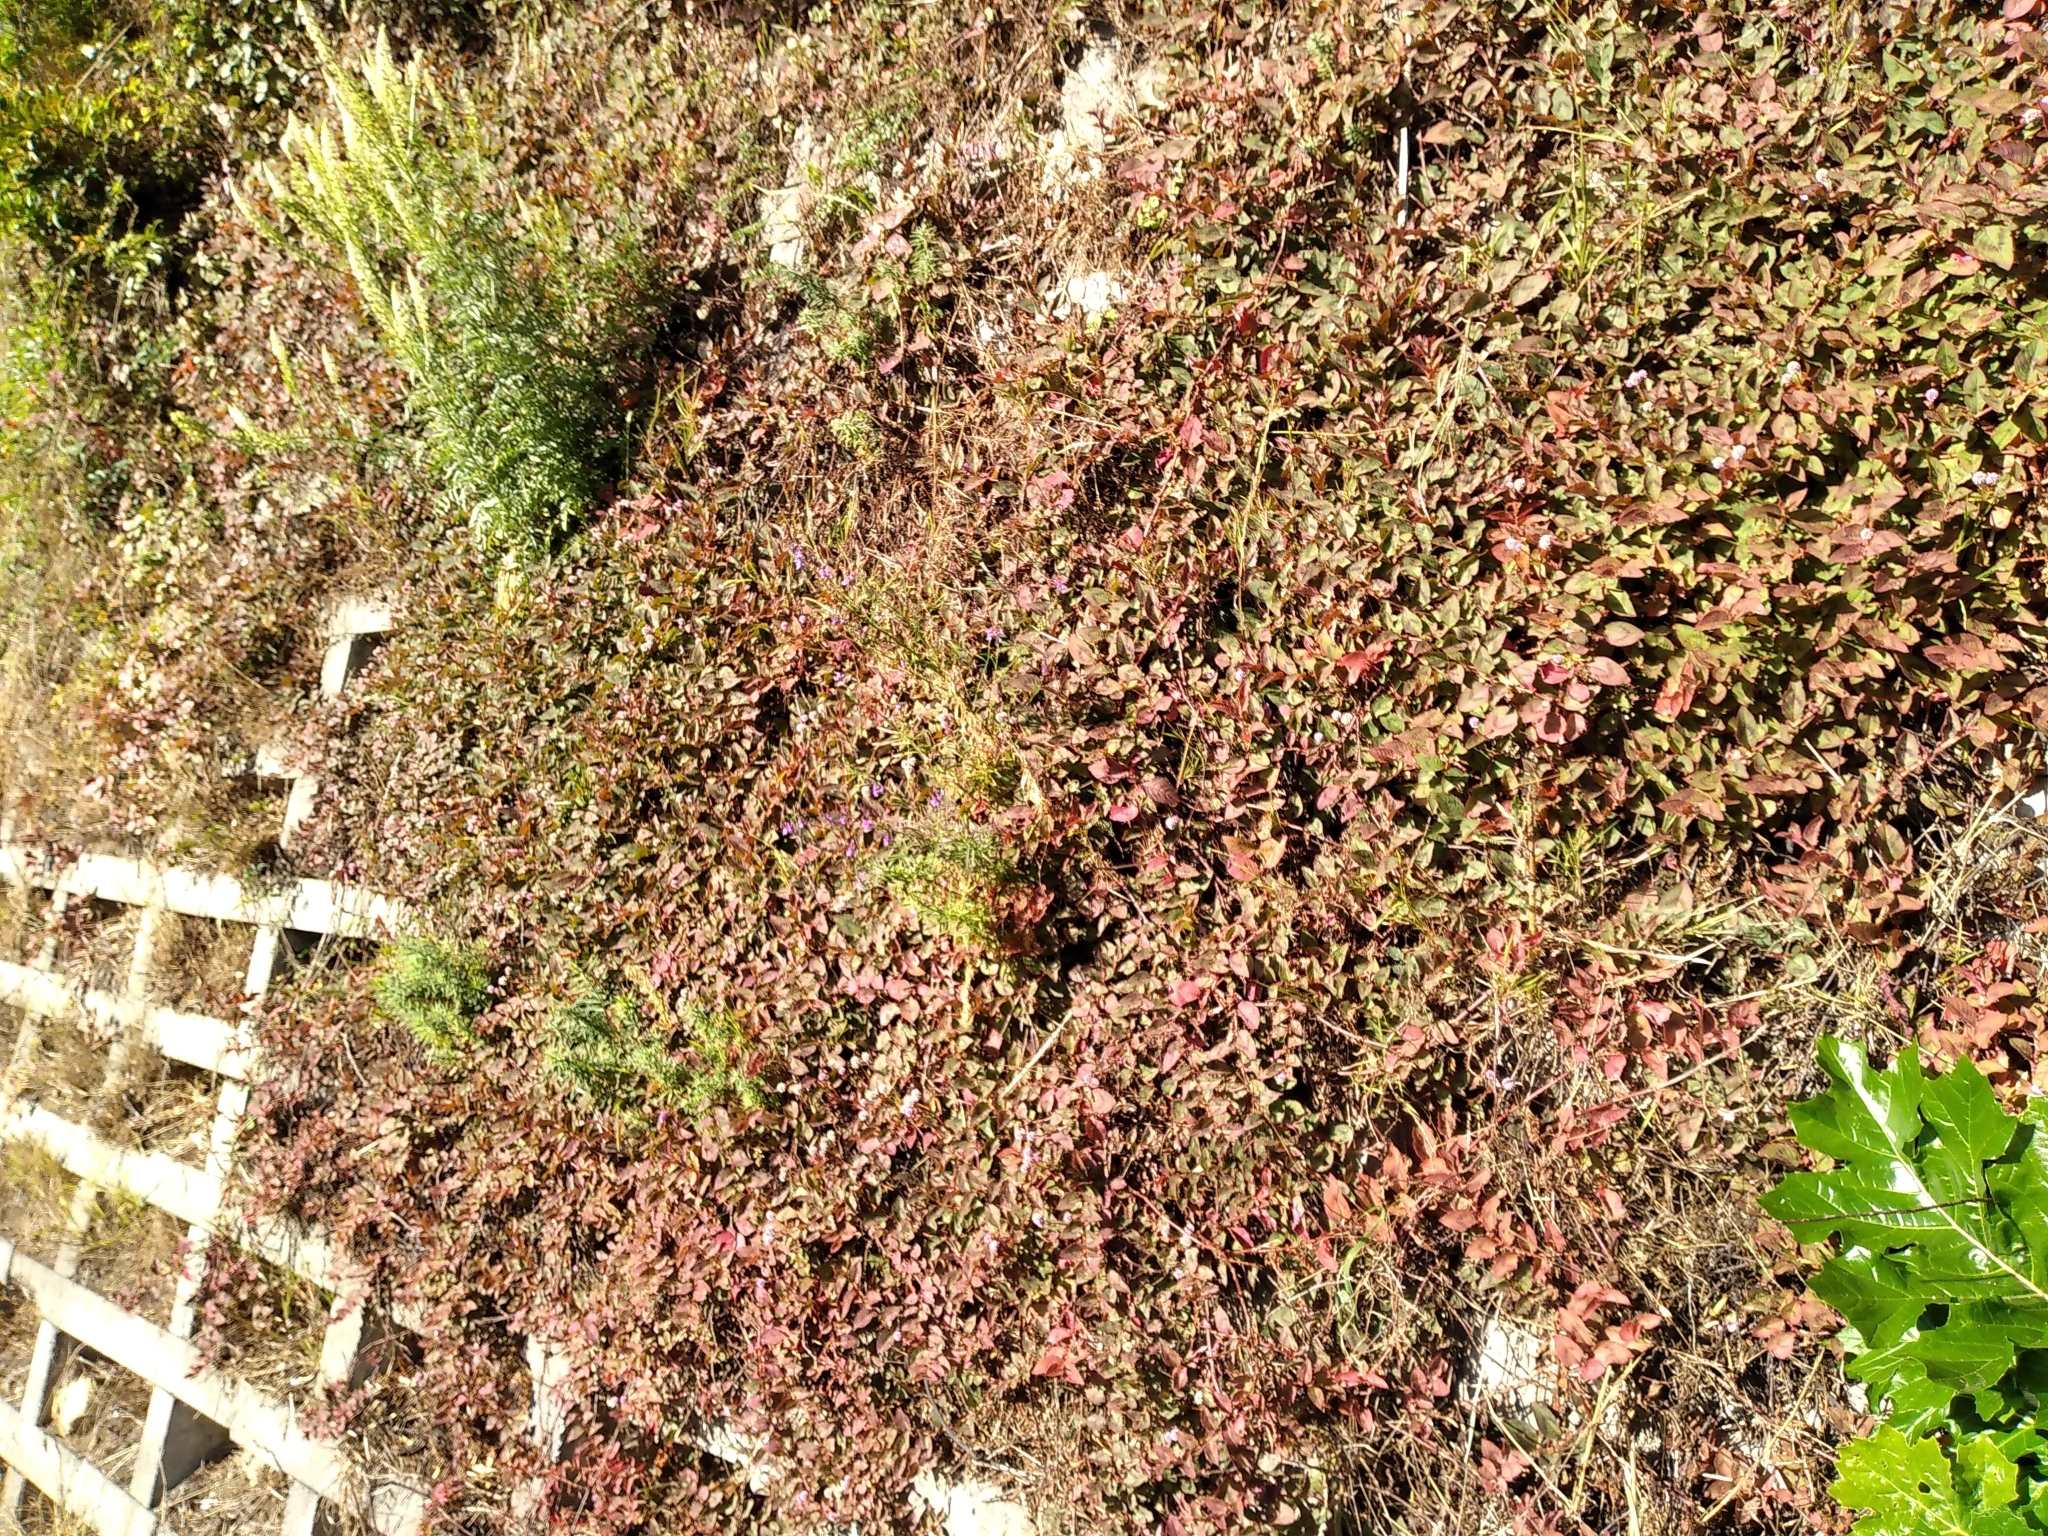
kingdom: Plantae
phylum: Tracheophyta
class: Magnoliopsida
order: Caryophyllales
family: Polygonaceae
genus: Persicaria
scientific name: Persicaria capitata
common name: Pinkhead smartweed
